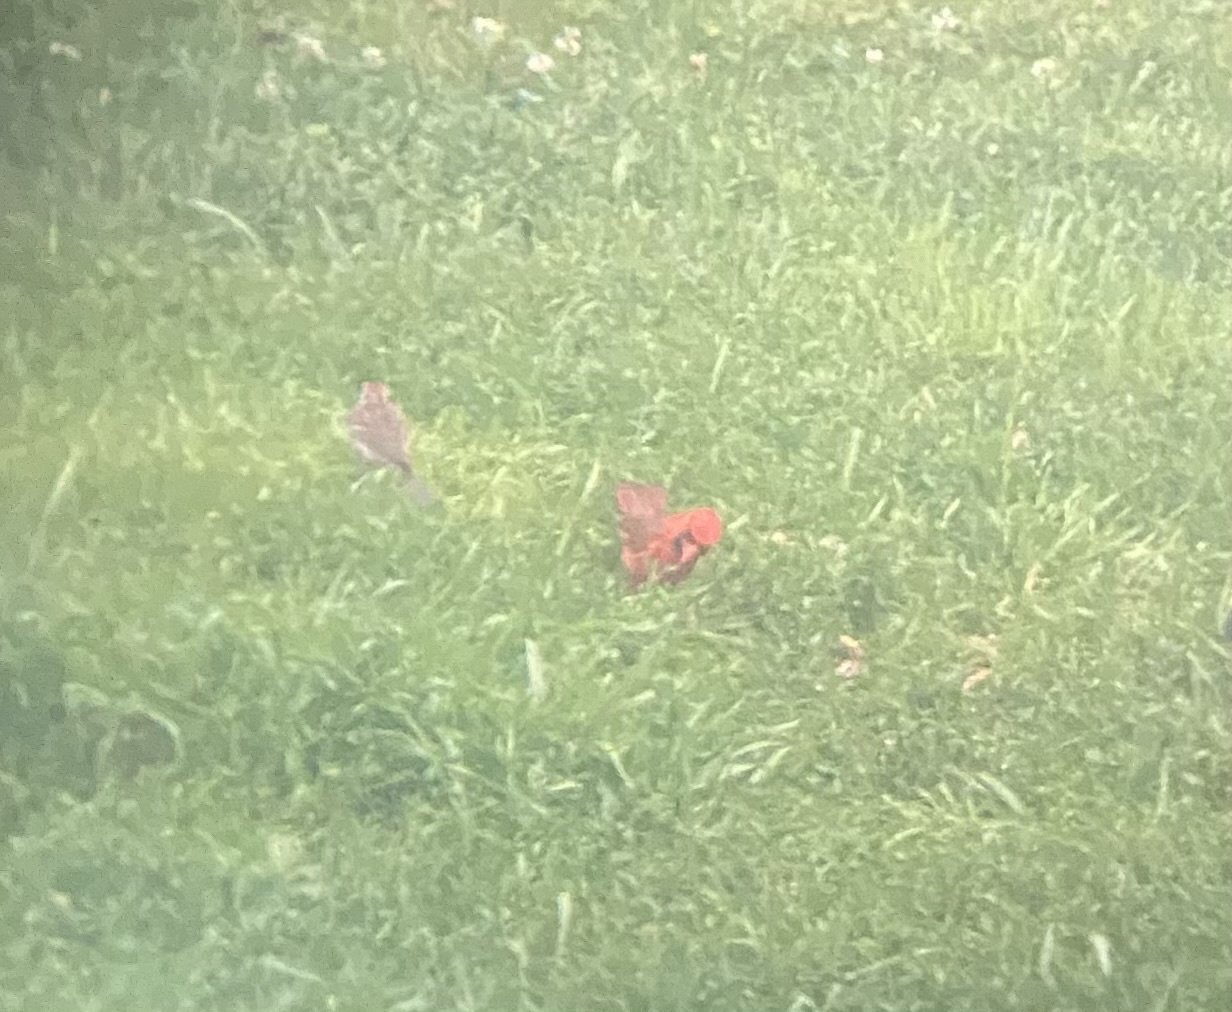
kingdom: Animalia
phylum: Chordata
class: Aves
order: Passeriformes
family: Cardinalidae
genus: Cardinalis
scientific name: Cardinalis cardinalis
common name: Northern cardinal
